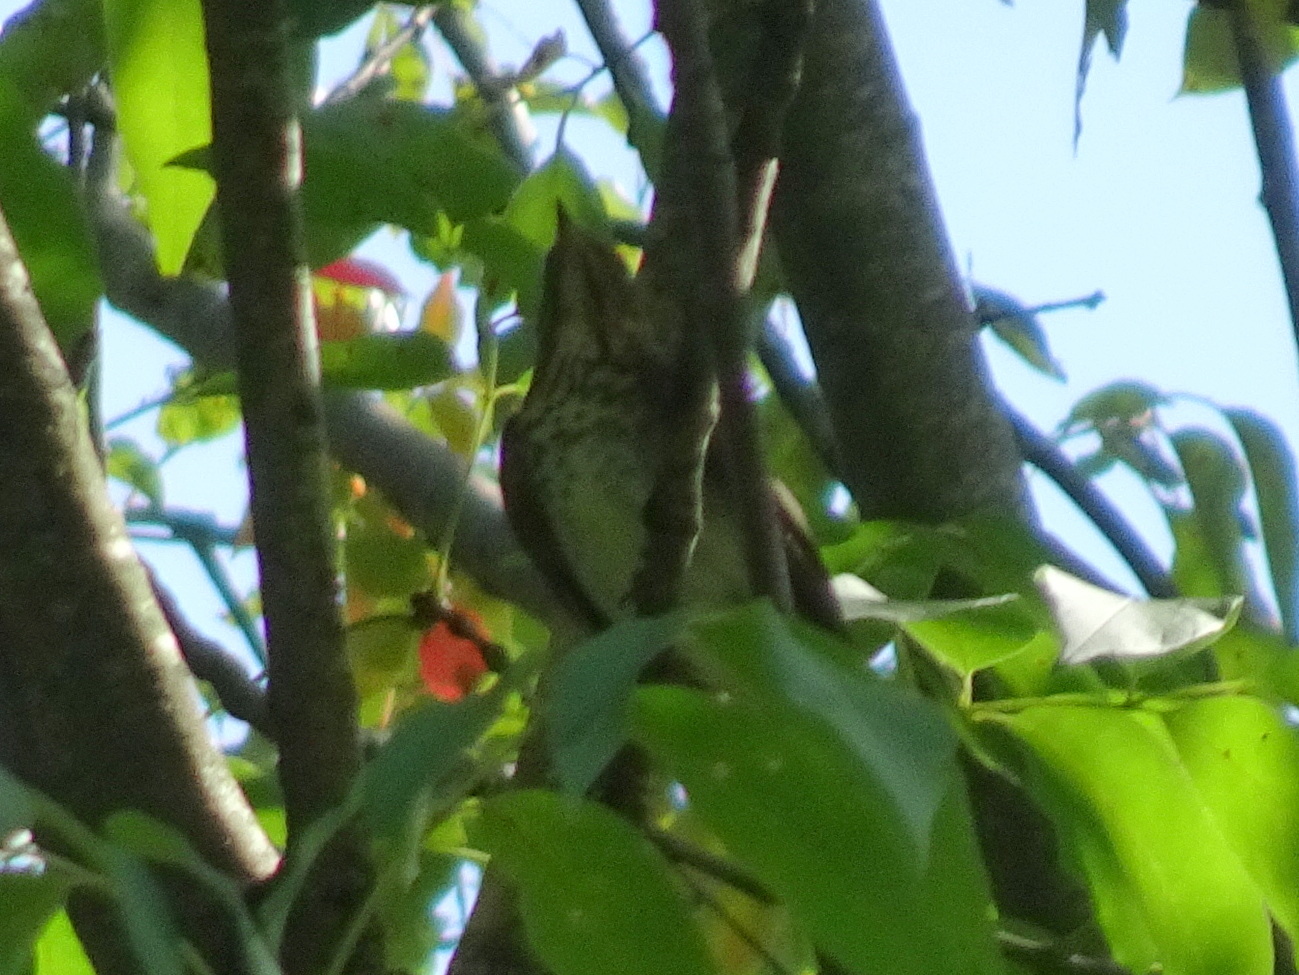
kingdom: Animalia
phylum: Chordata
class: Aves
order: Passeriformes
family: Turdidae
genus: Catharus
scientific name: Catharus
